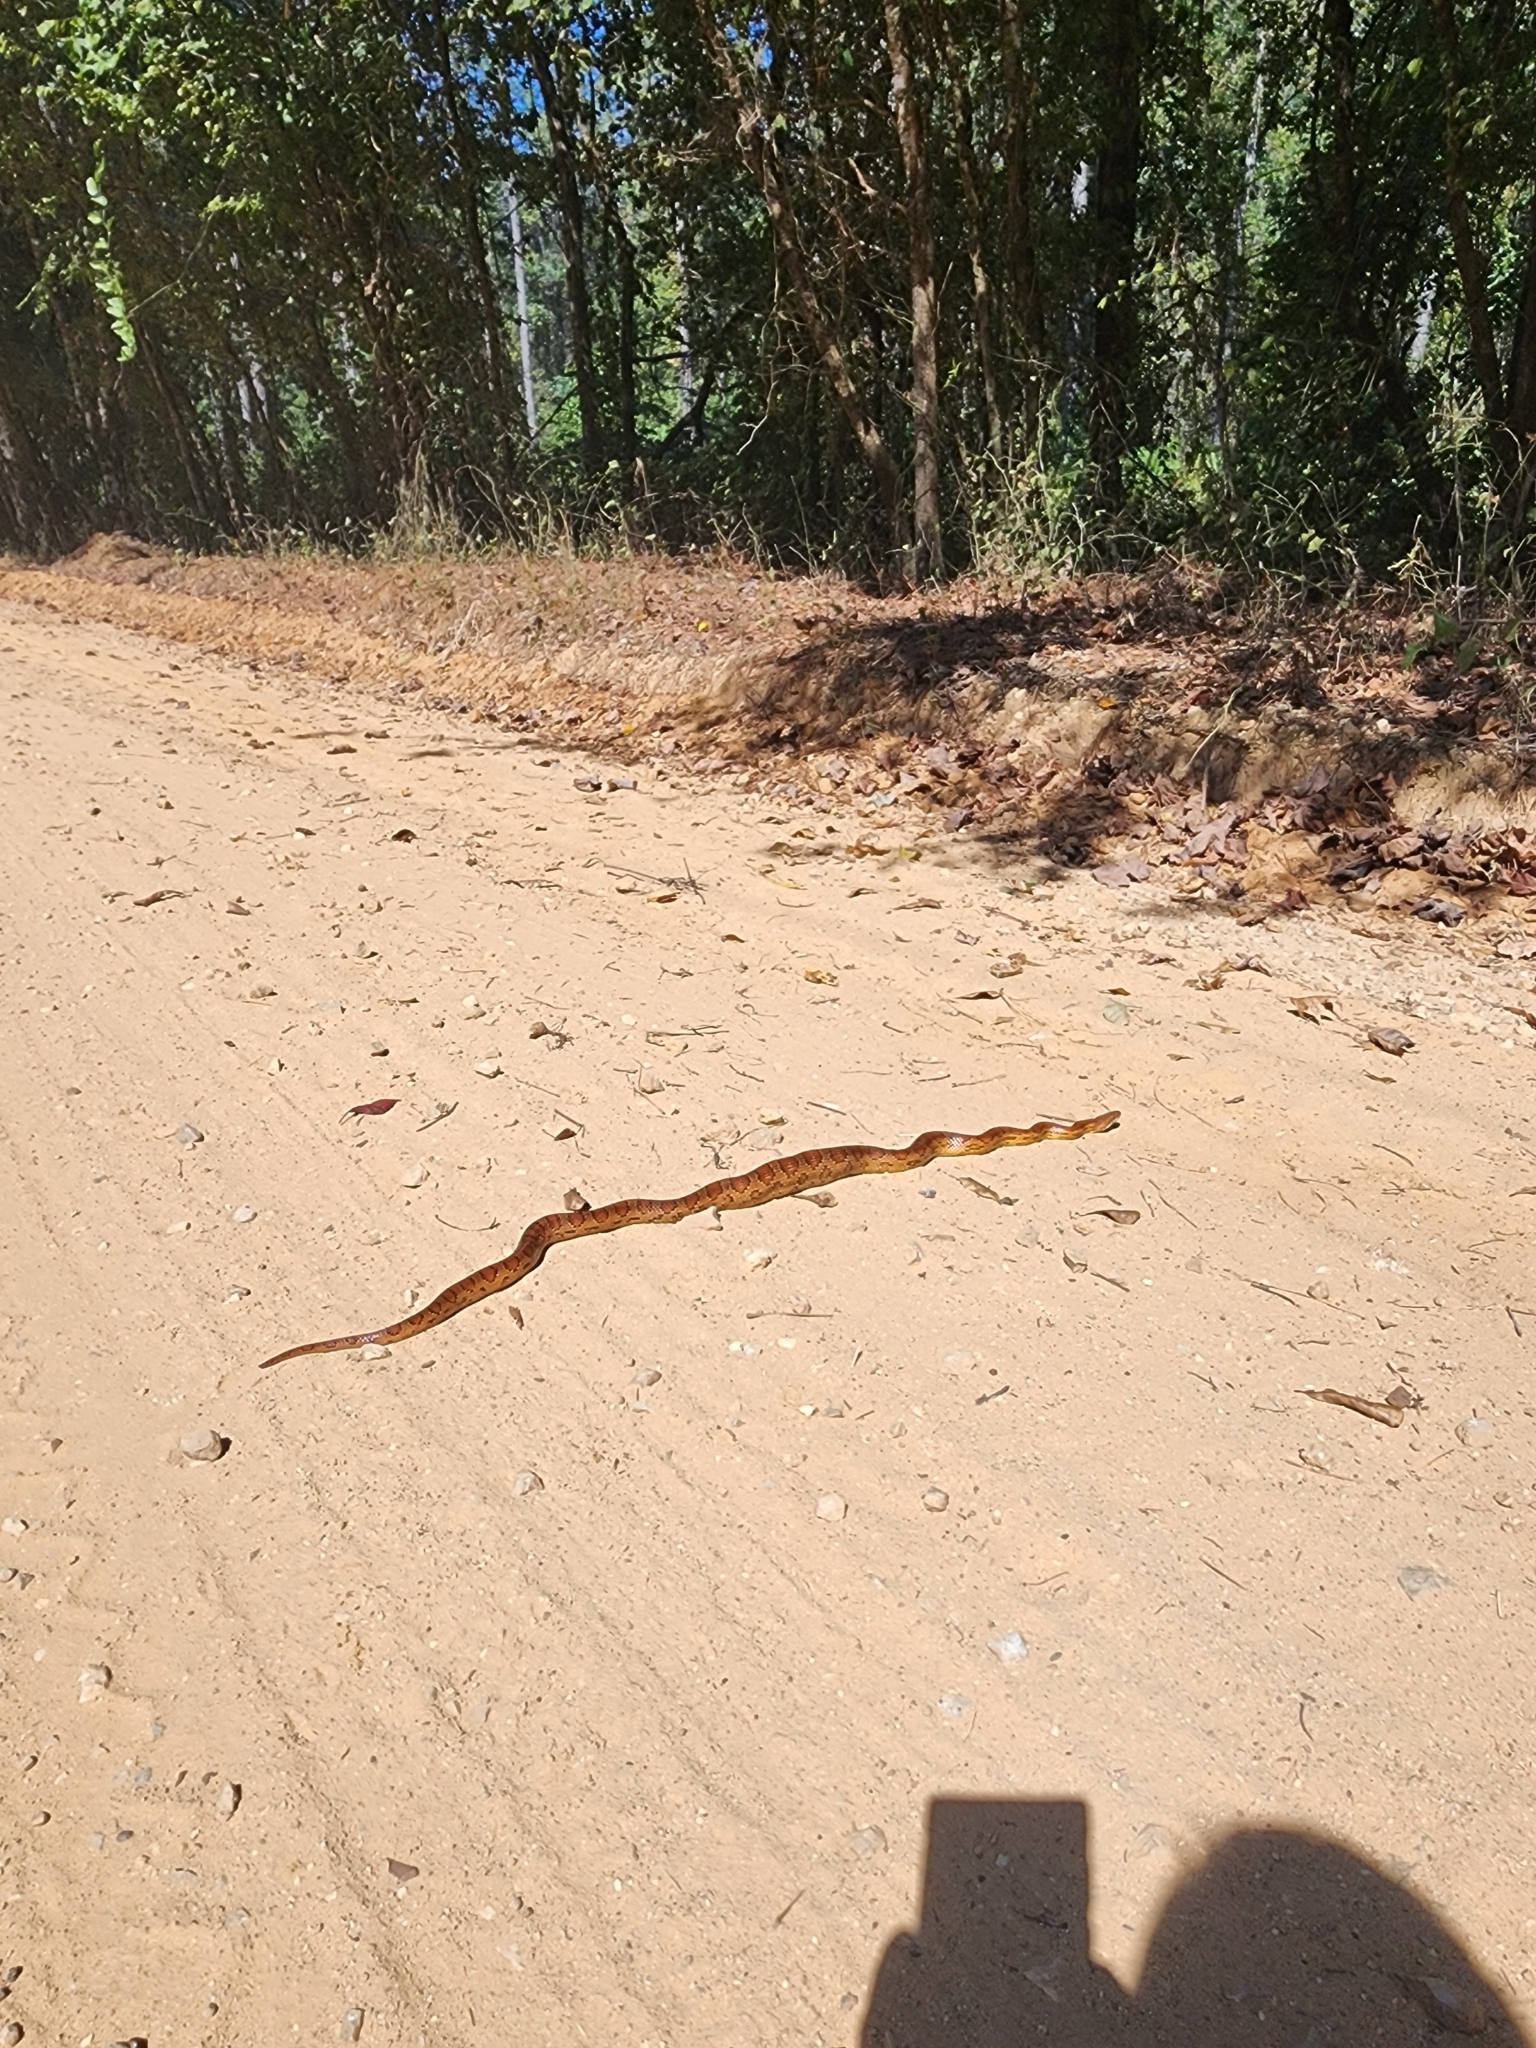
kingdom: Animalia
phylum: Chordata
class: Squamata
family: Colubridae
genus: Pantherophis
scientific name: Pantherophis guttatus
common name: Red cornsnake
